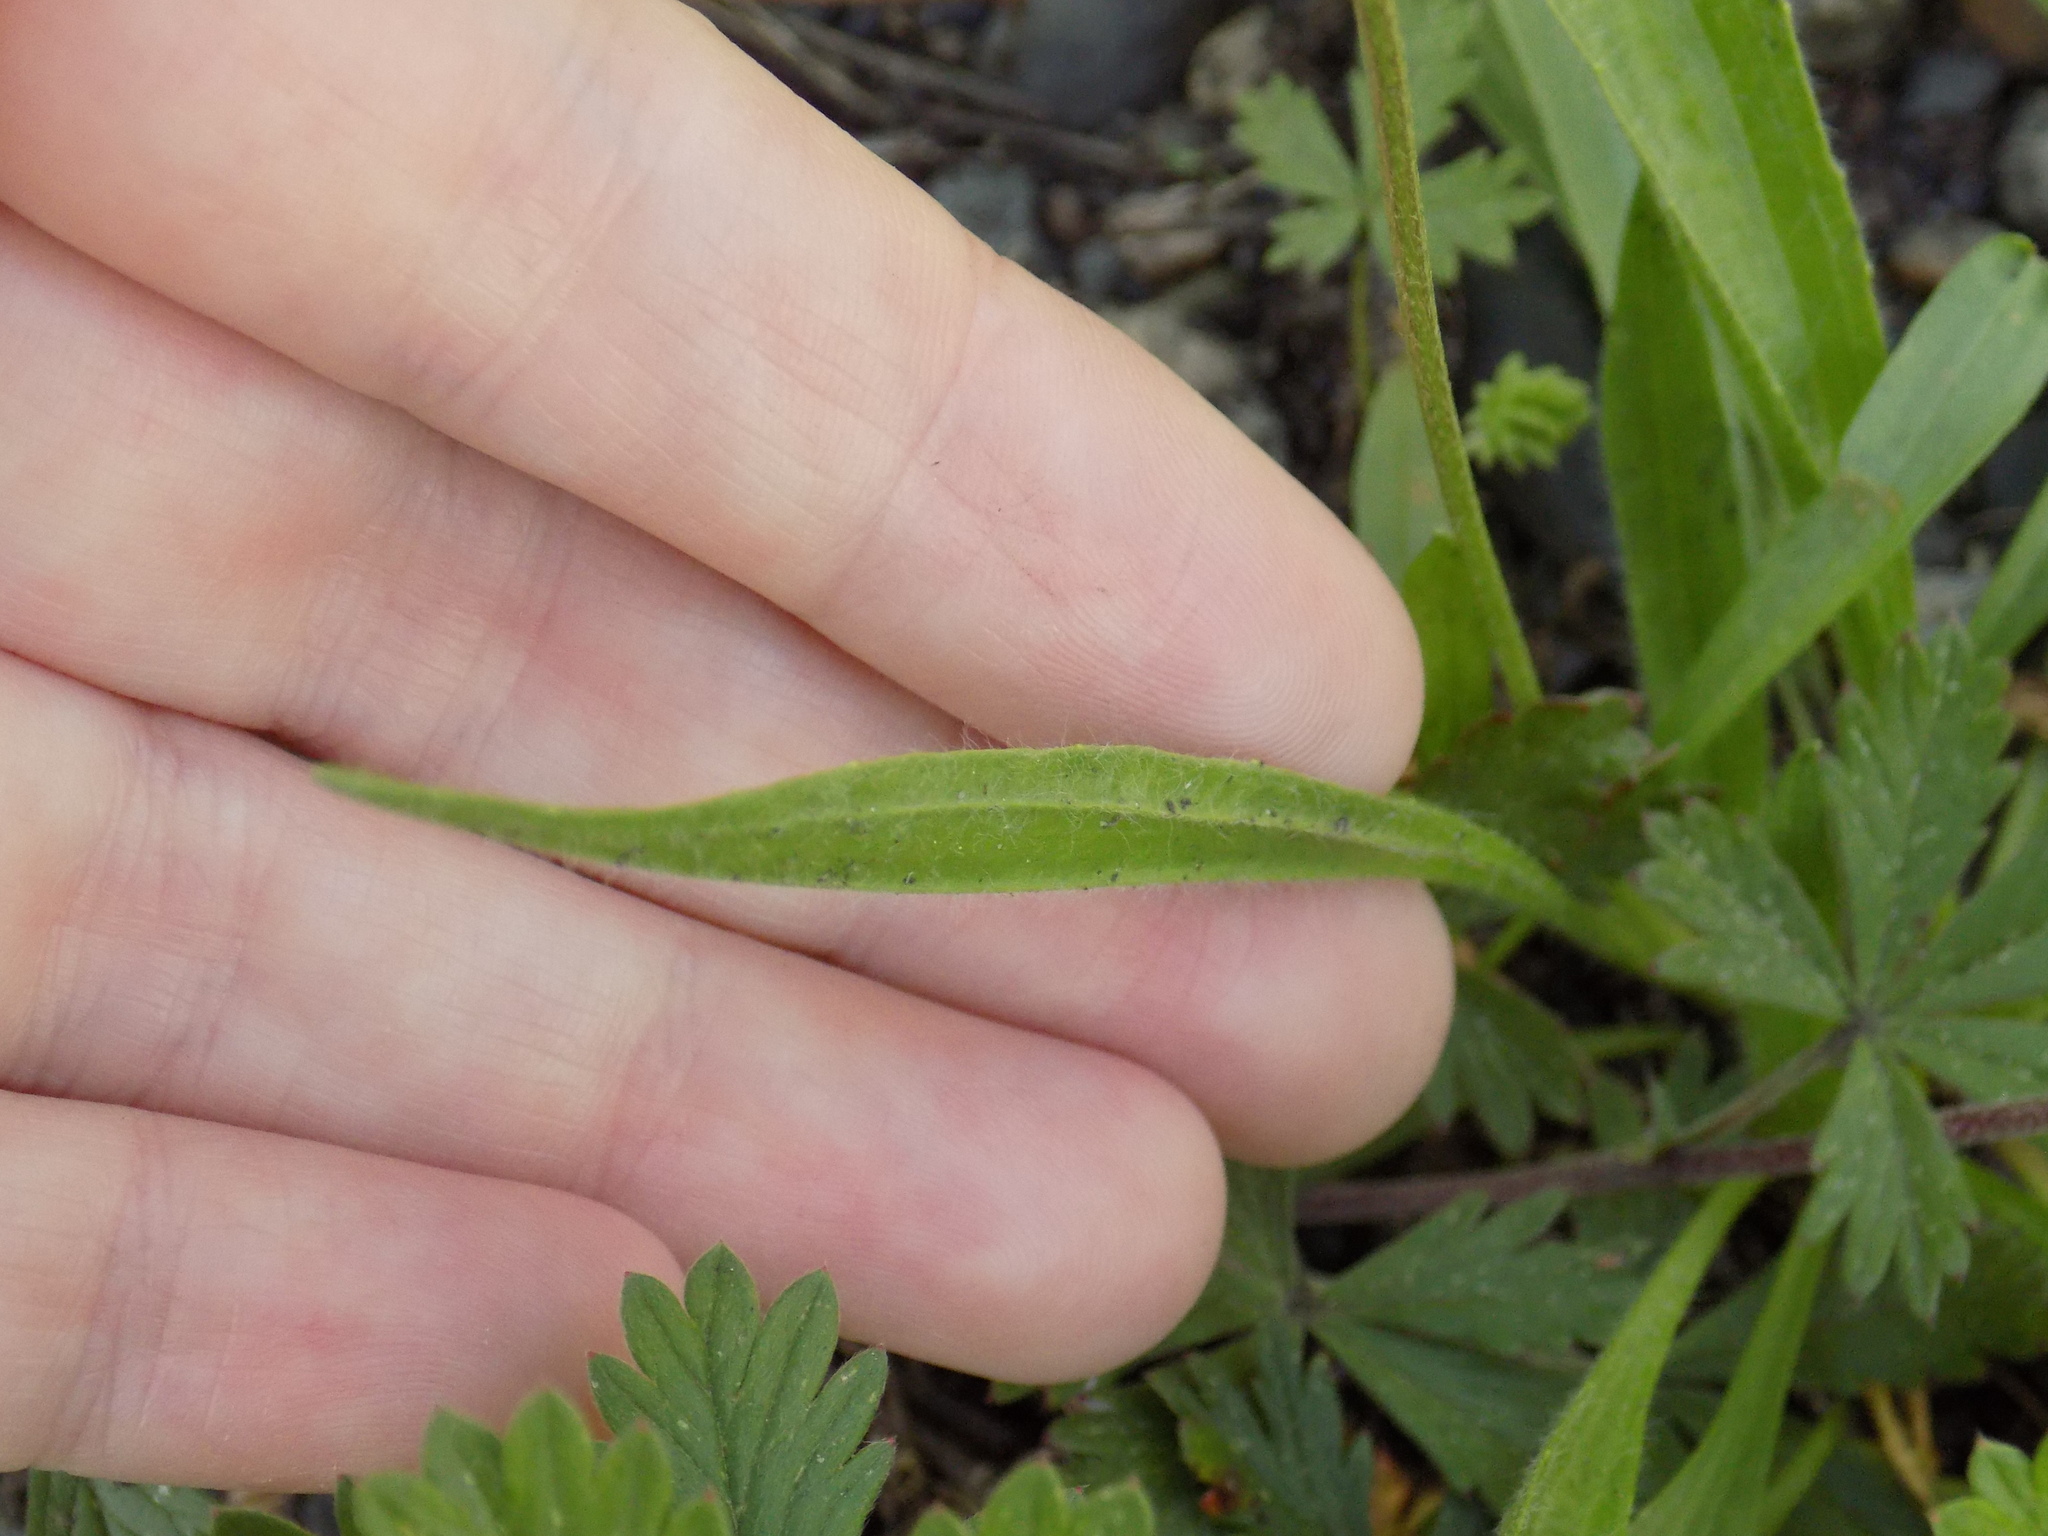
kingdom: Plantae
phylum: Tracheophyta
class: Magnoliopsida
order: Lamiales
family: Plantaginaceae
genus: Plantago
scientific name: Plantago lanceolata
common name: Ribwort plantain
